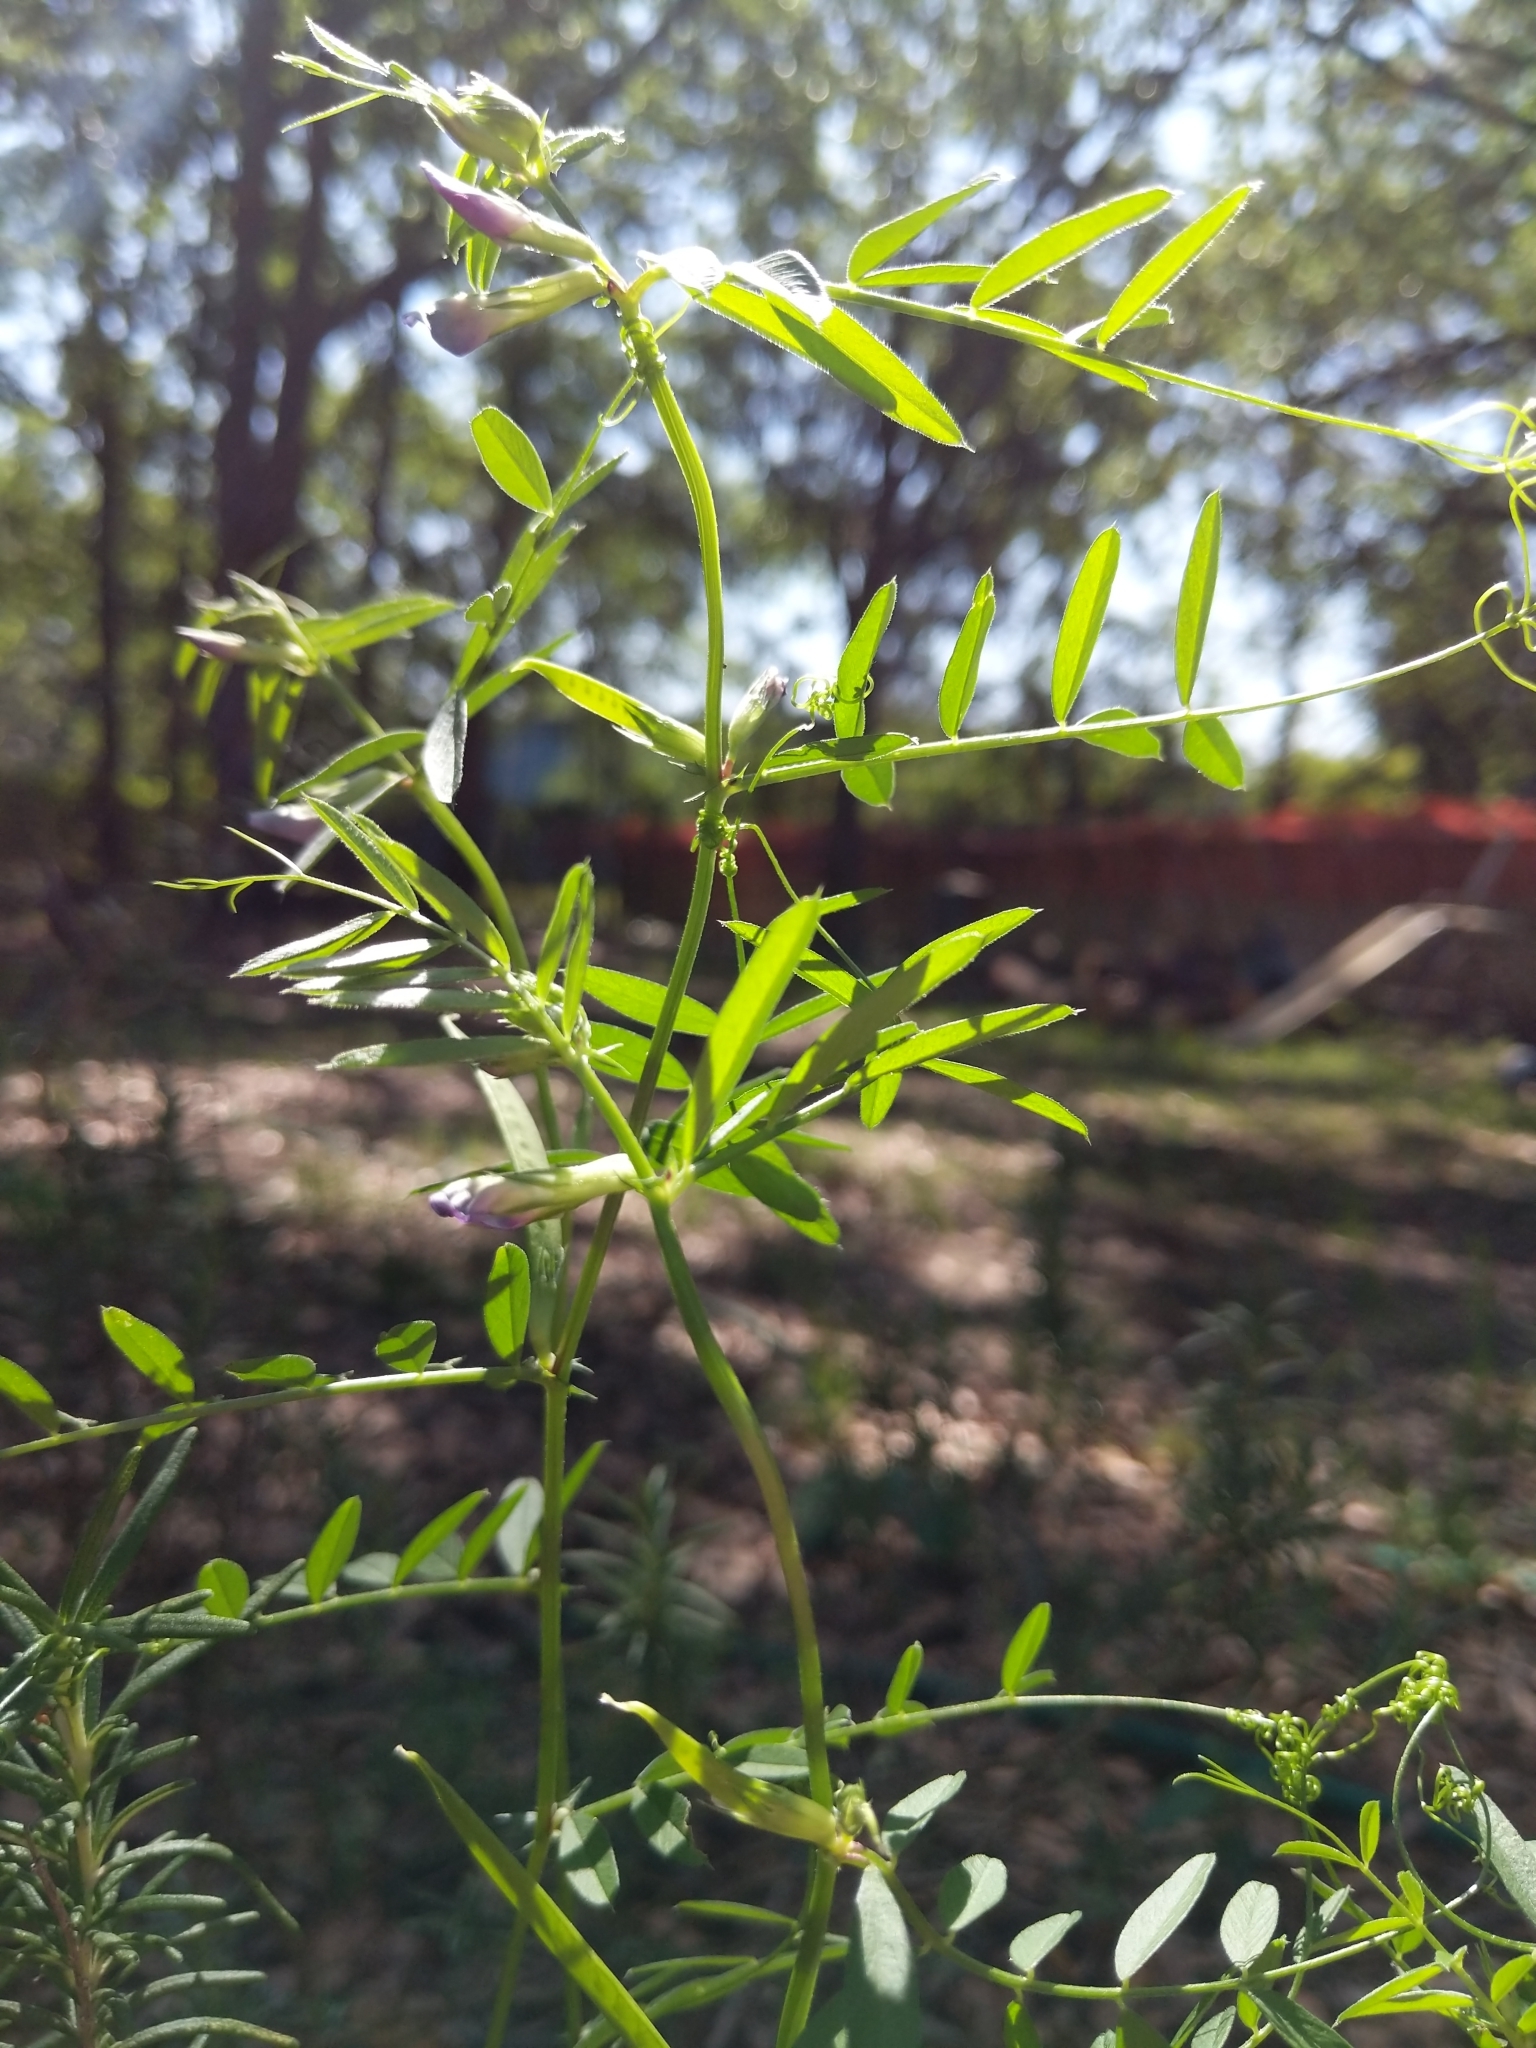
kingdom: Plantae
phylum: Tracheophyta
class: Magnoliopsida
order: Fabales
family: Fabaceae
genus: Vicia
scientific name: Vicia sativa
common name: Garden vetch
